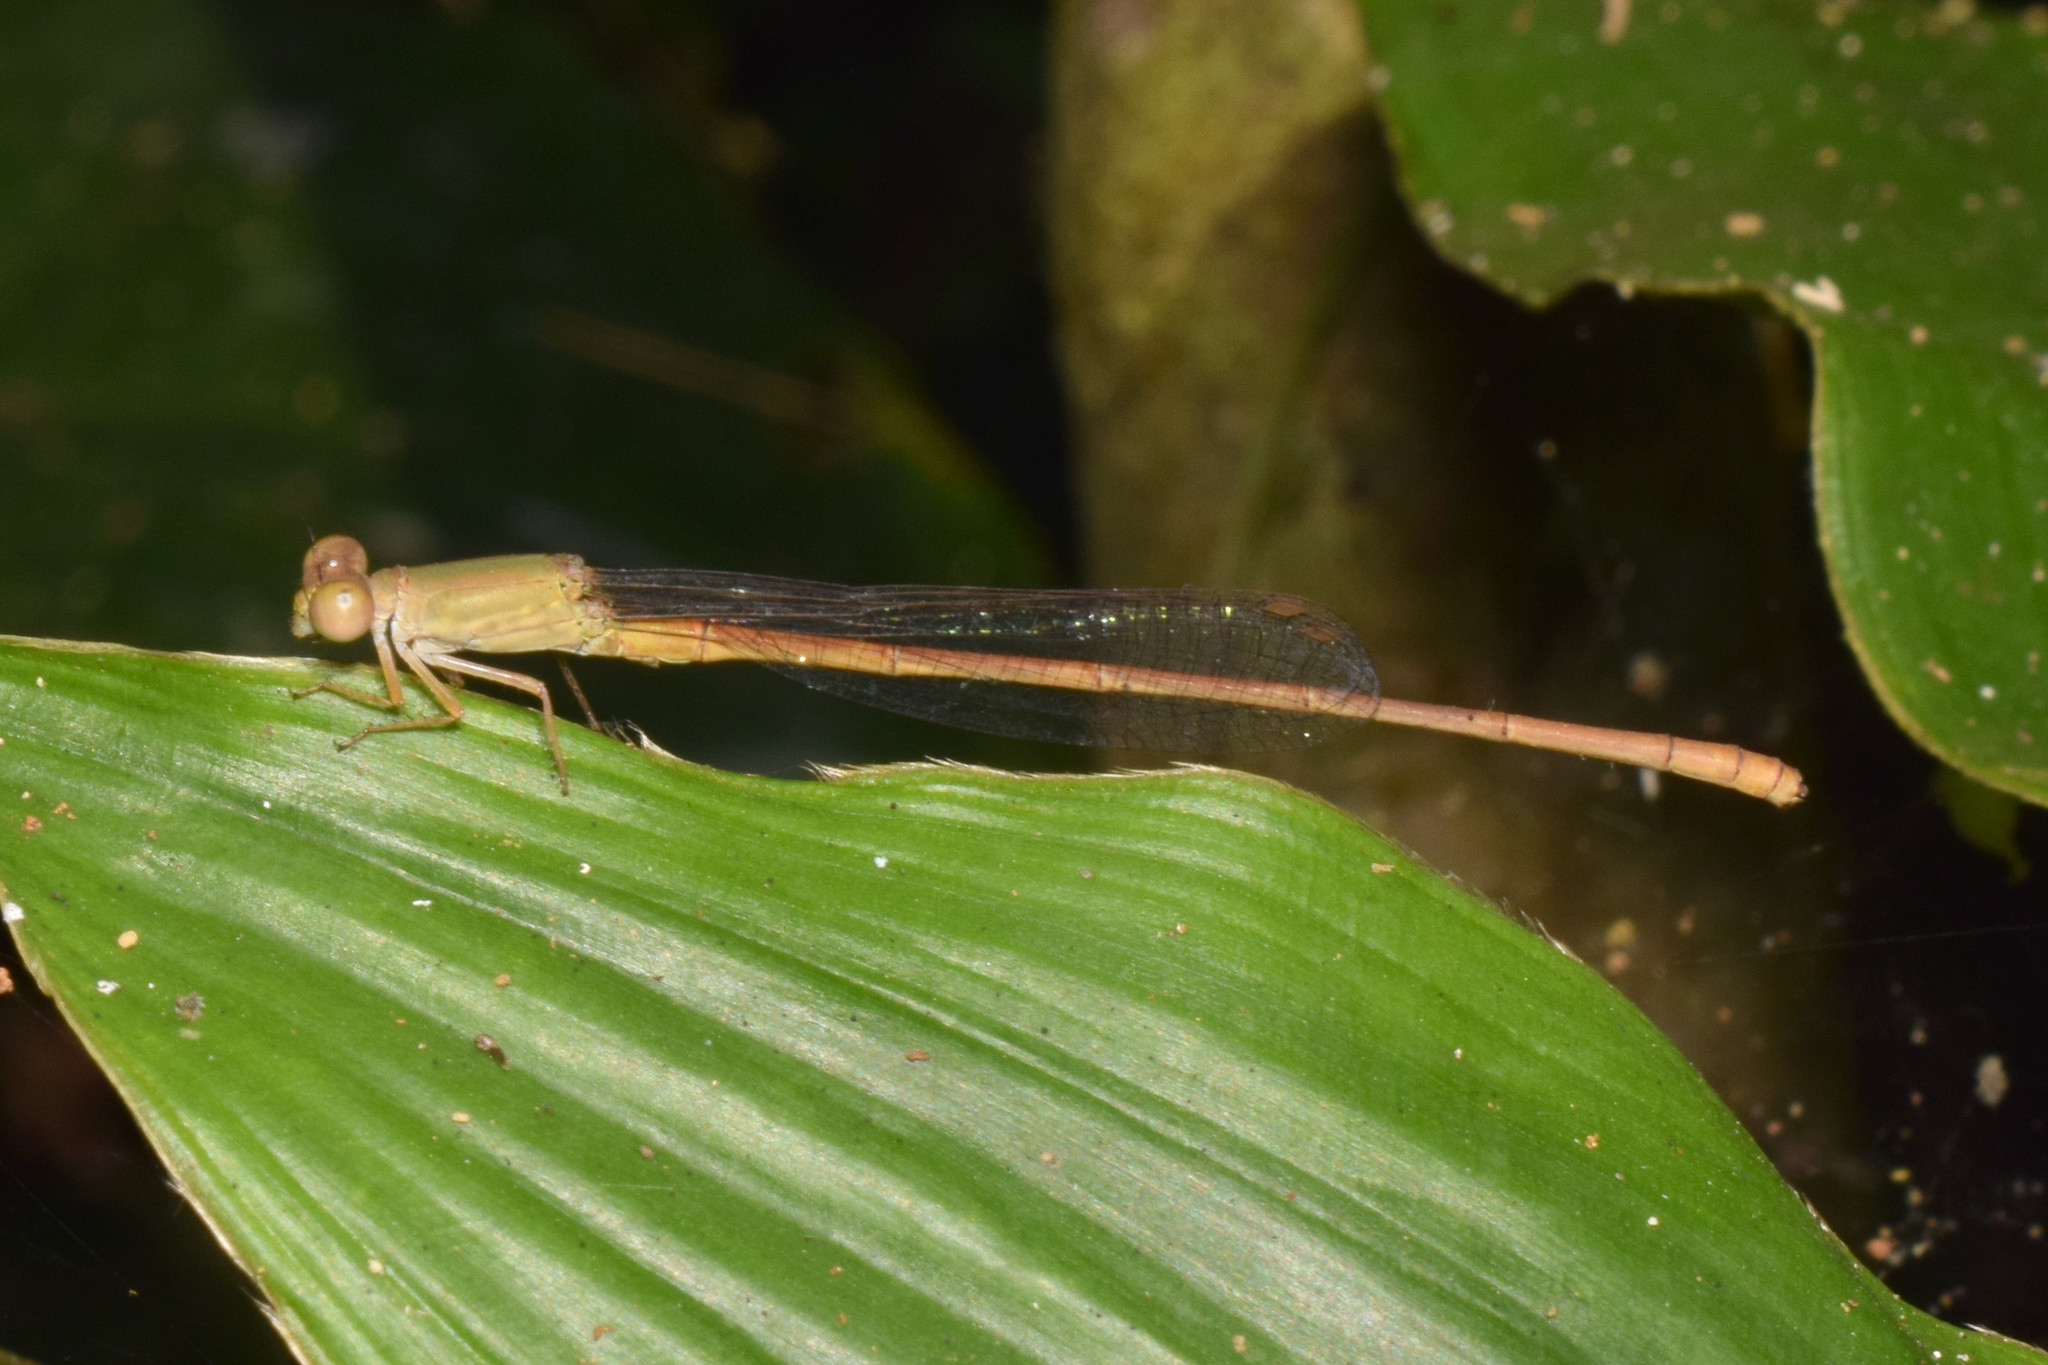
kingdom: Animalia
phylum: Arthropoda
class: Insecta
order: Odonata
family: Coenagrionidae
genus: Ceriagrion
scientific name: Ceriagrion olivaceum
